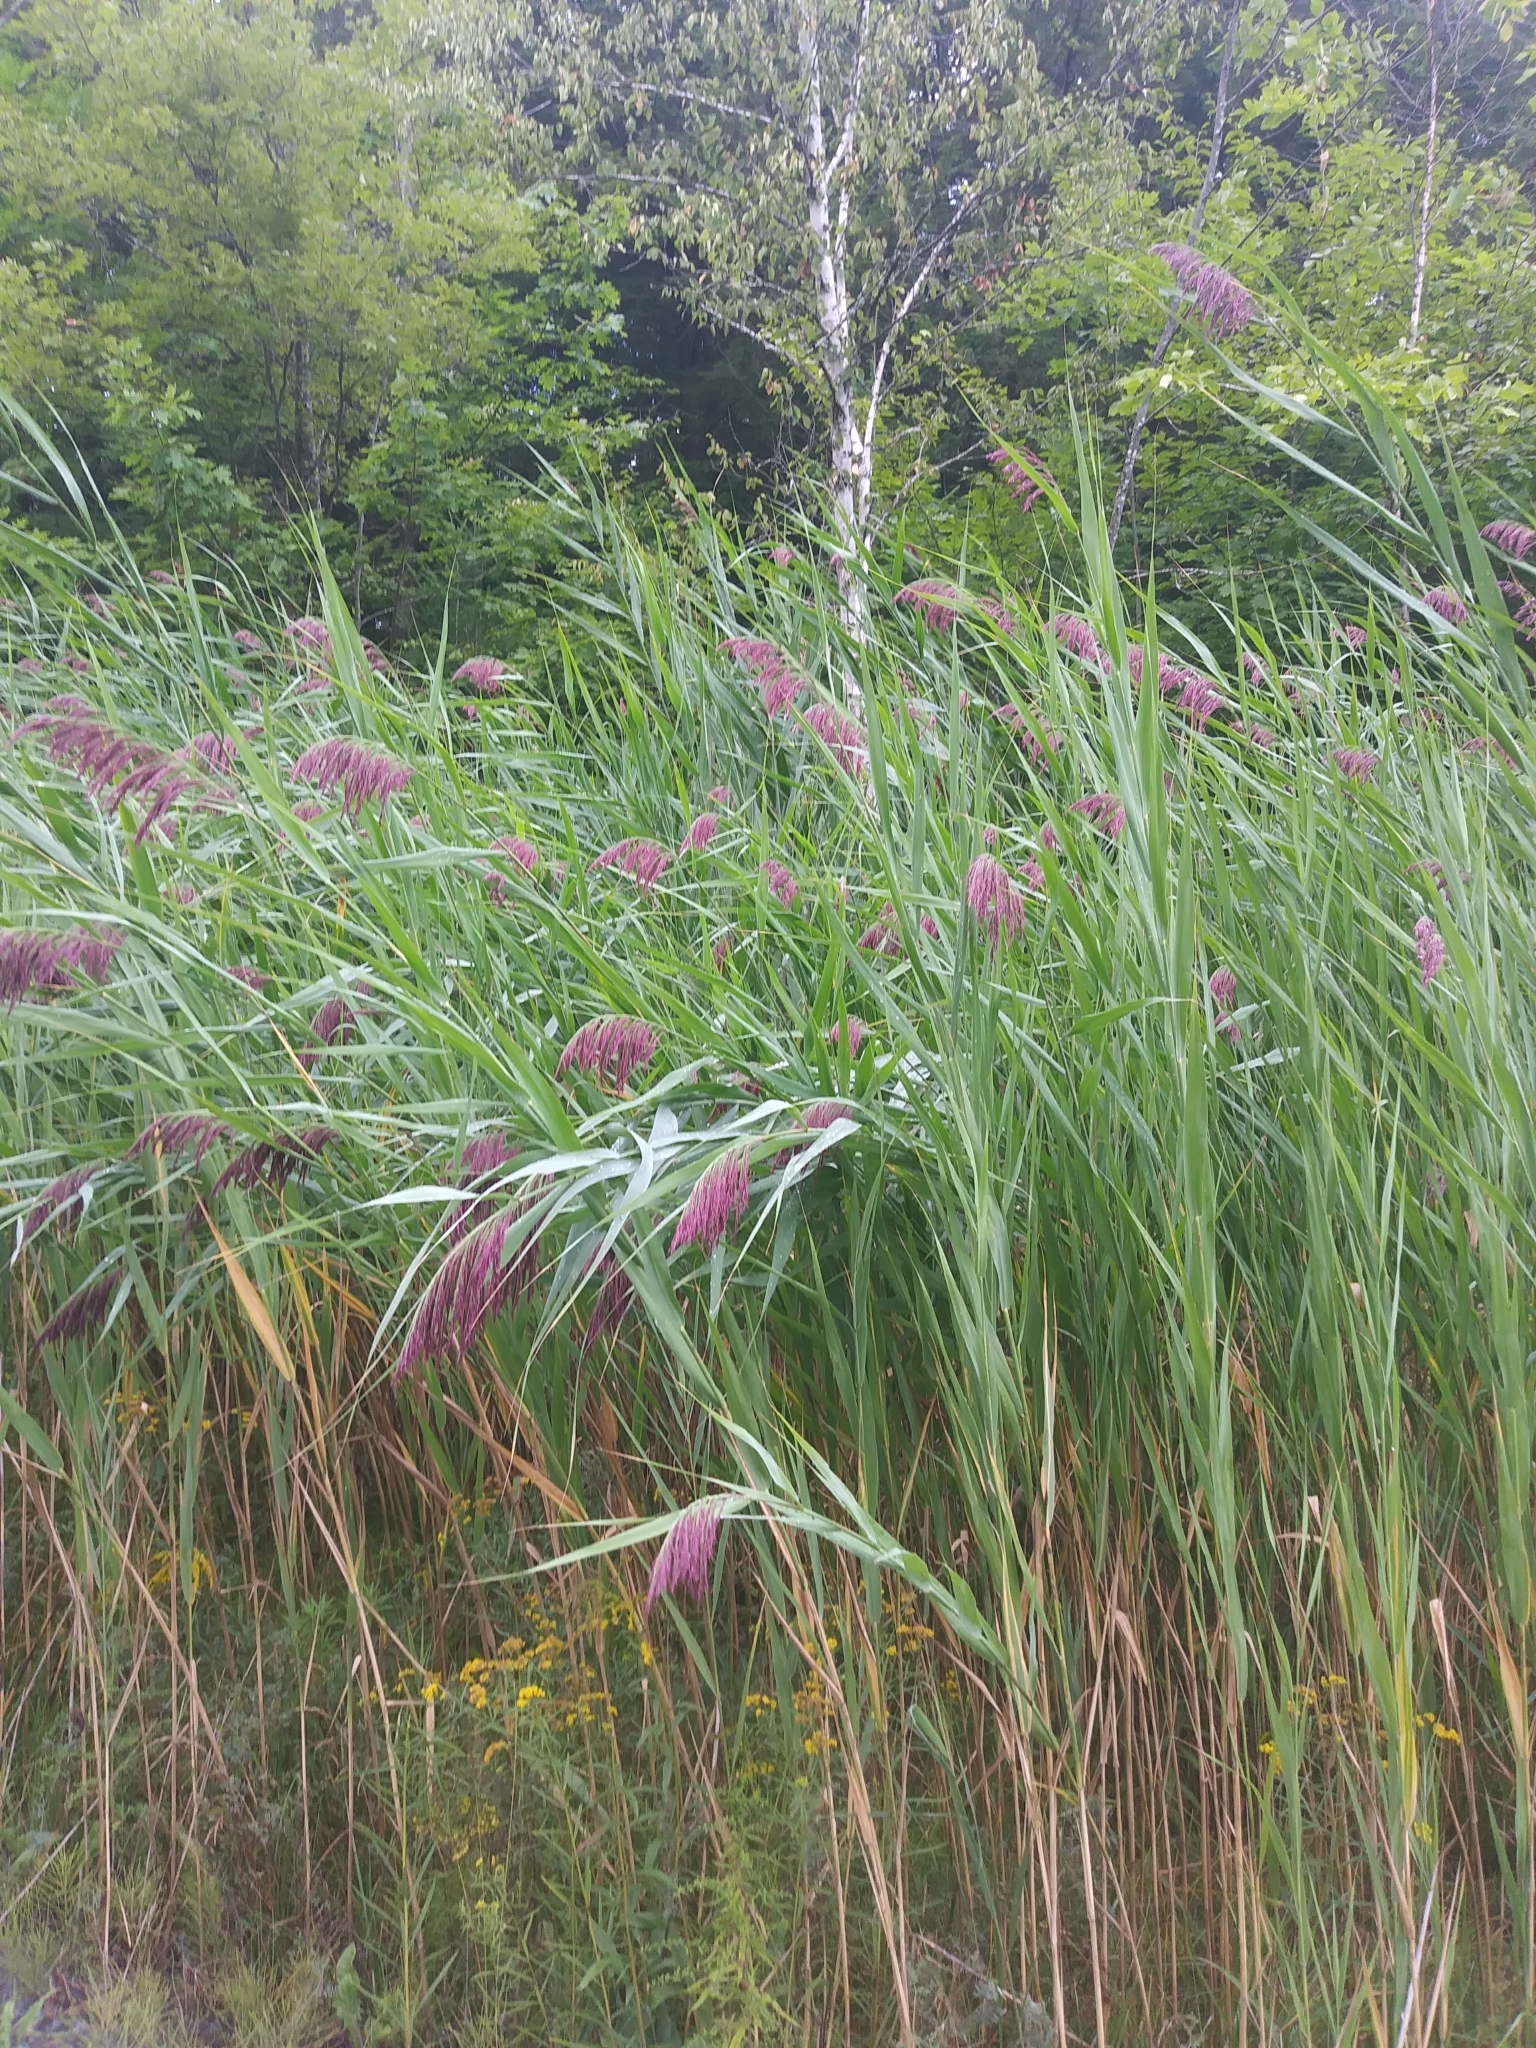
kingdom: Plantae
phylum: Tracheophyta
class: Liliopsida
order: Poales
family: Poaceae
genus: Phragmites
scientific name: Phragmites australis
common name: Common reed
